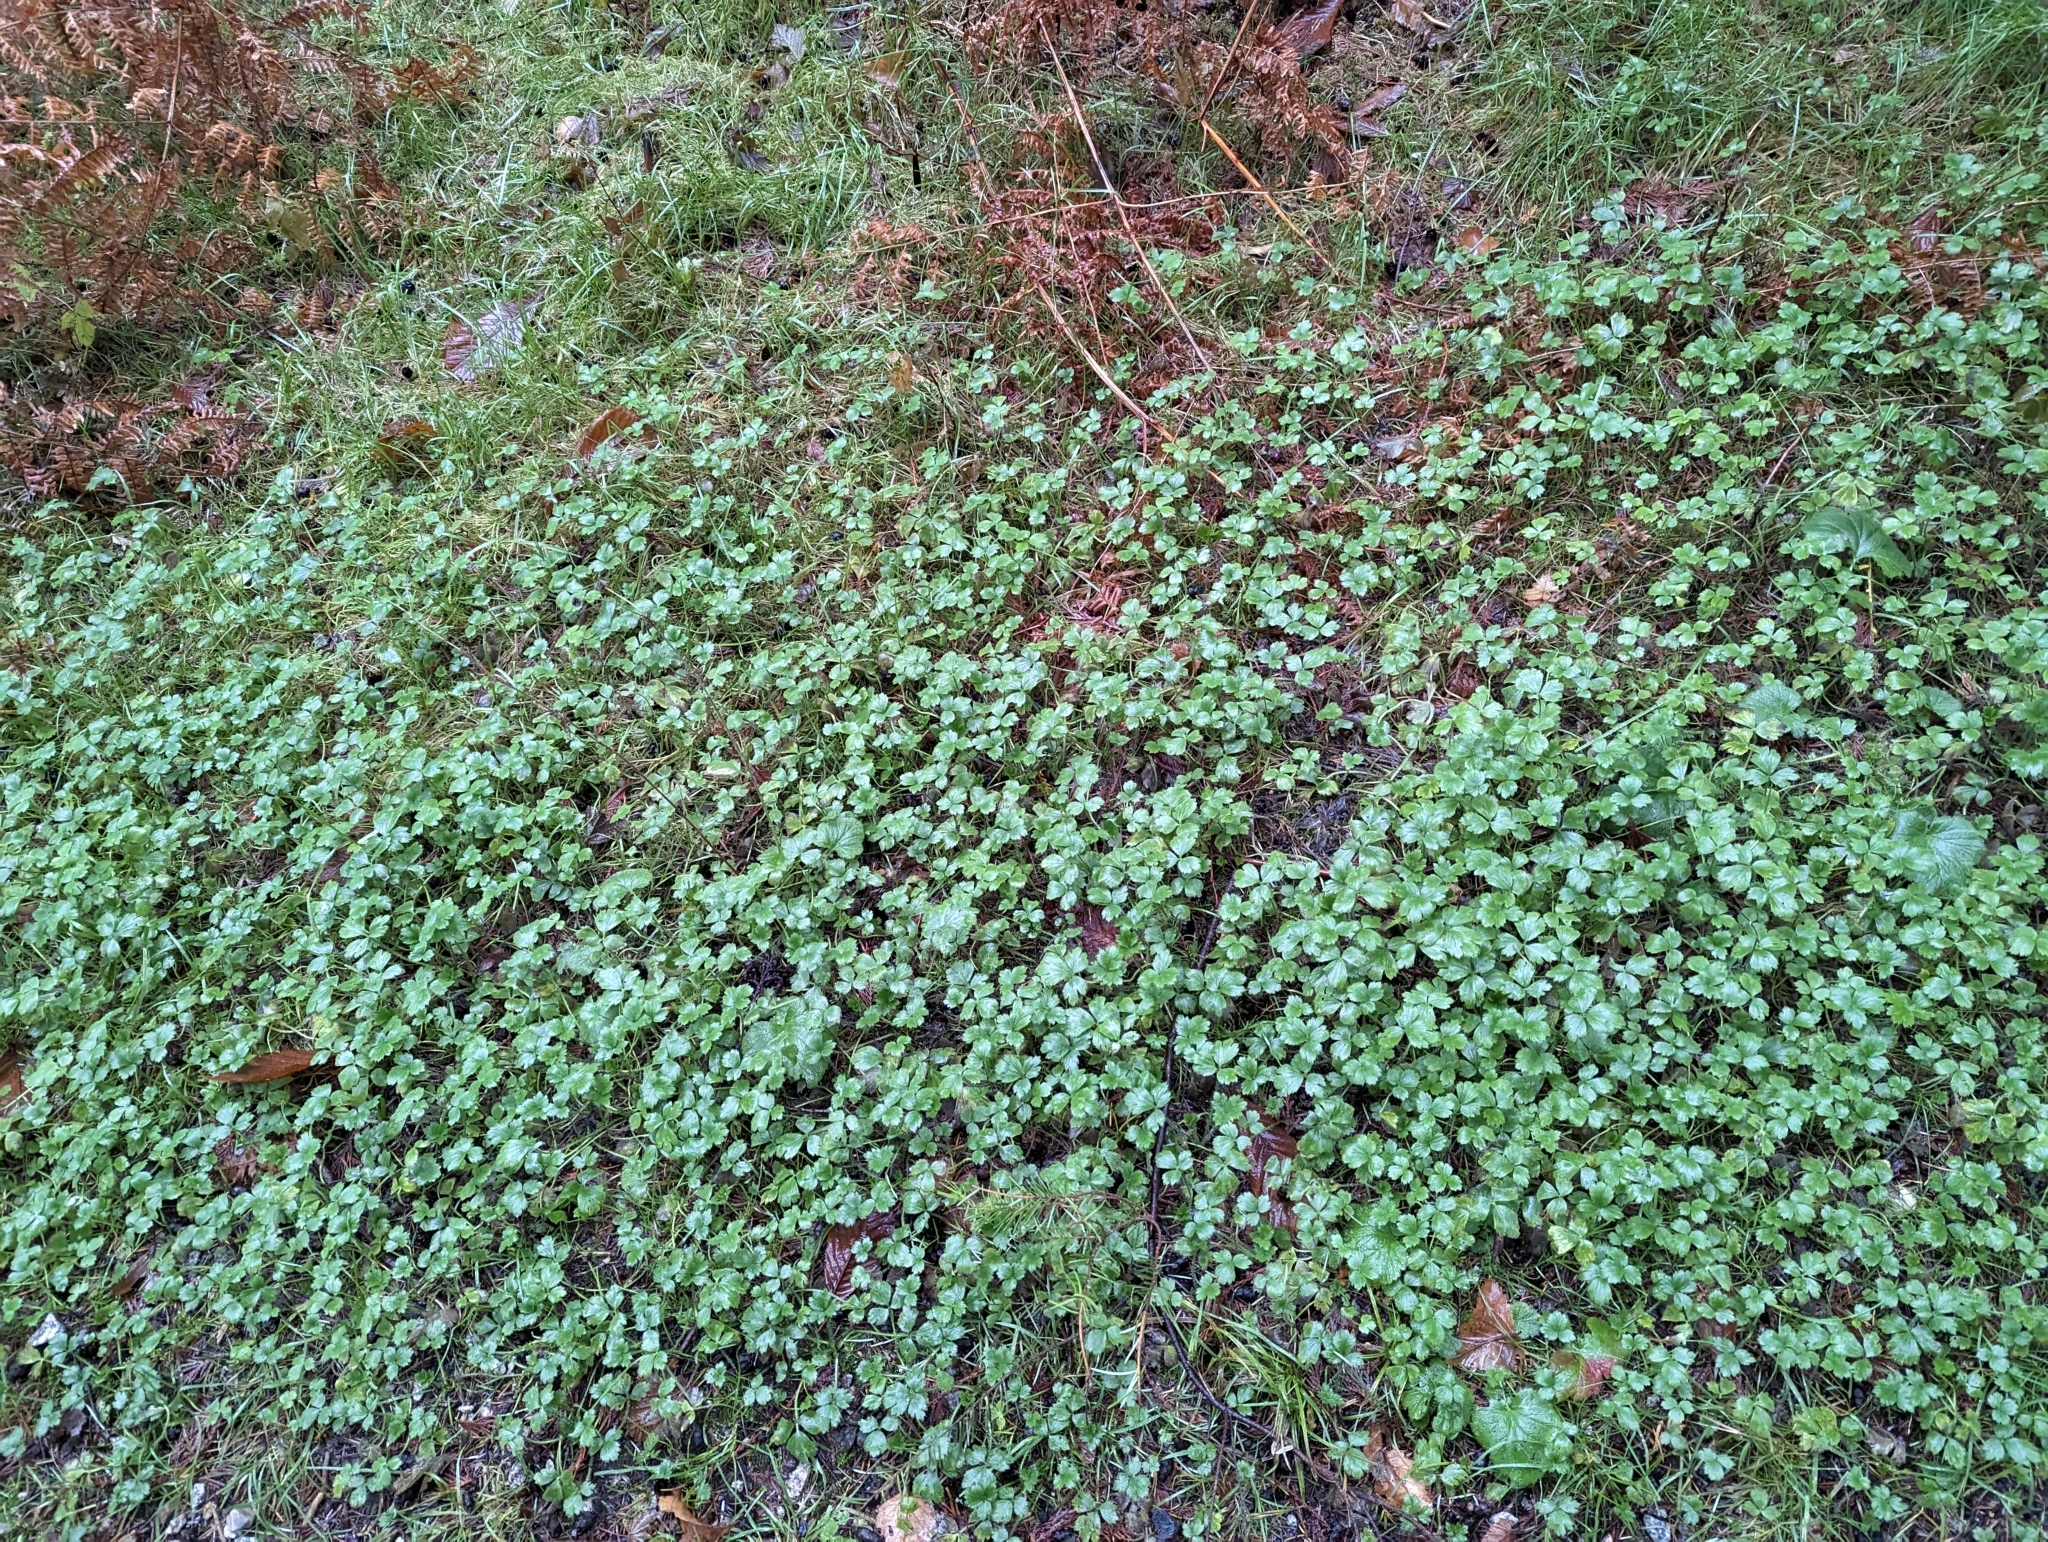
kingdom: Plantae
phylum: Tracheophyta
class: Magnoliopsida
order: Ranunculales
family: Ranunculaceae
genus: Ranunculus
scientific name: Ranunculus repens
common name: Creeping buttercup
